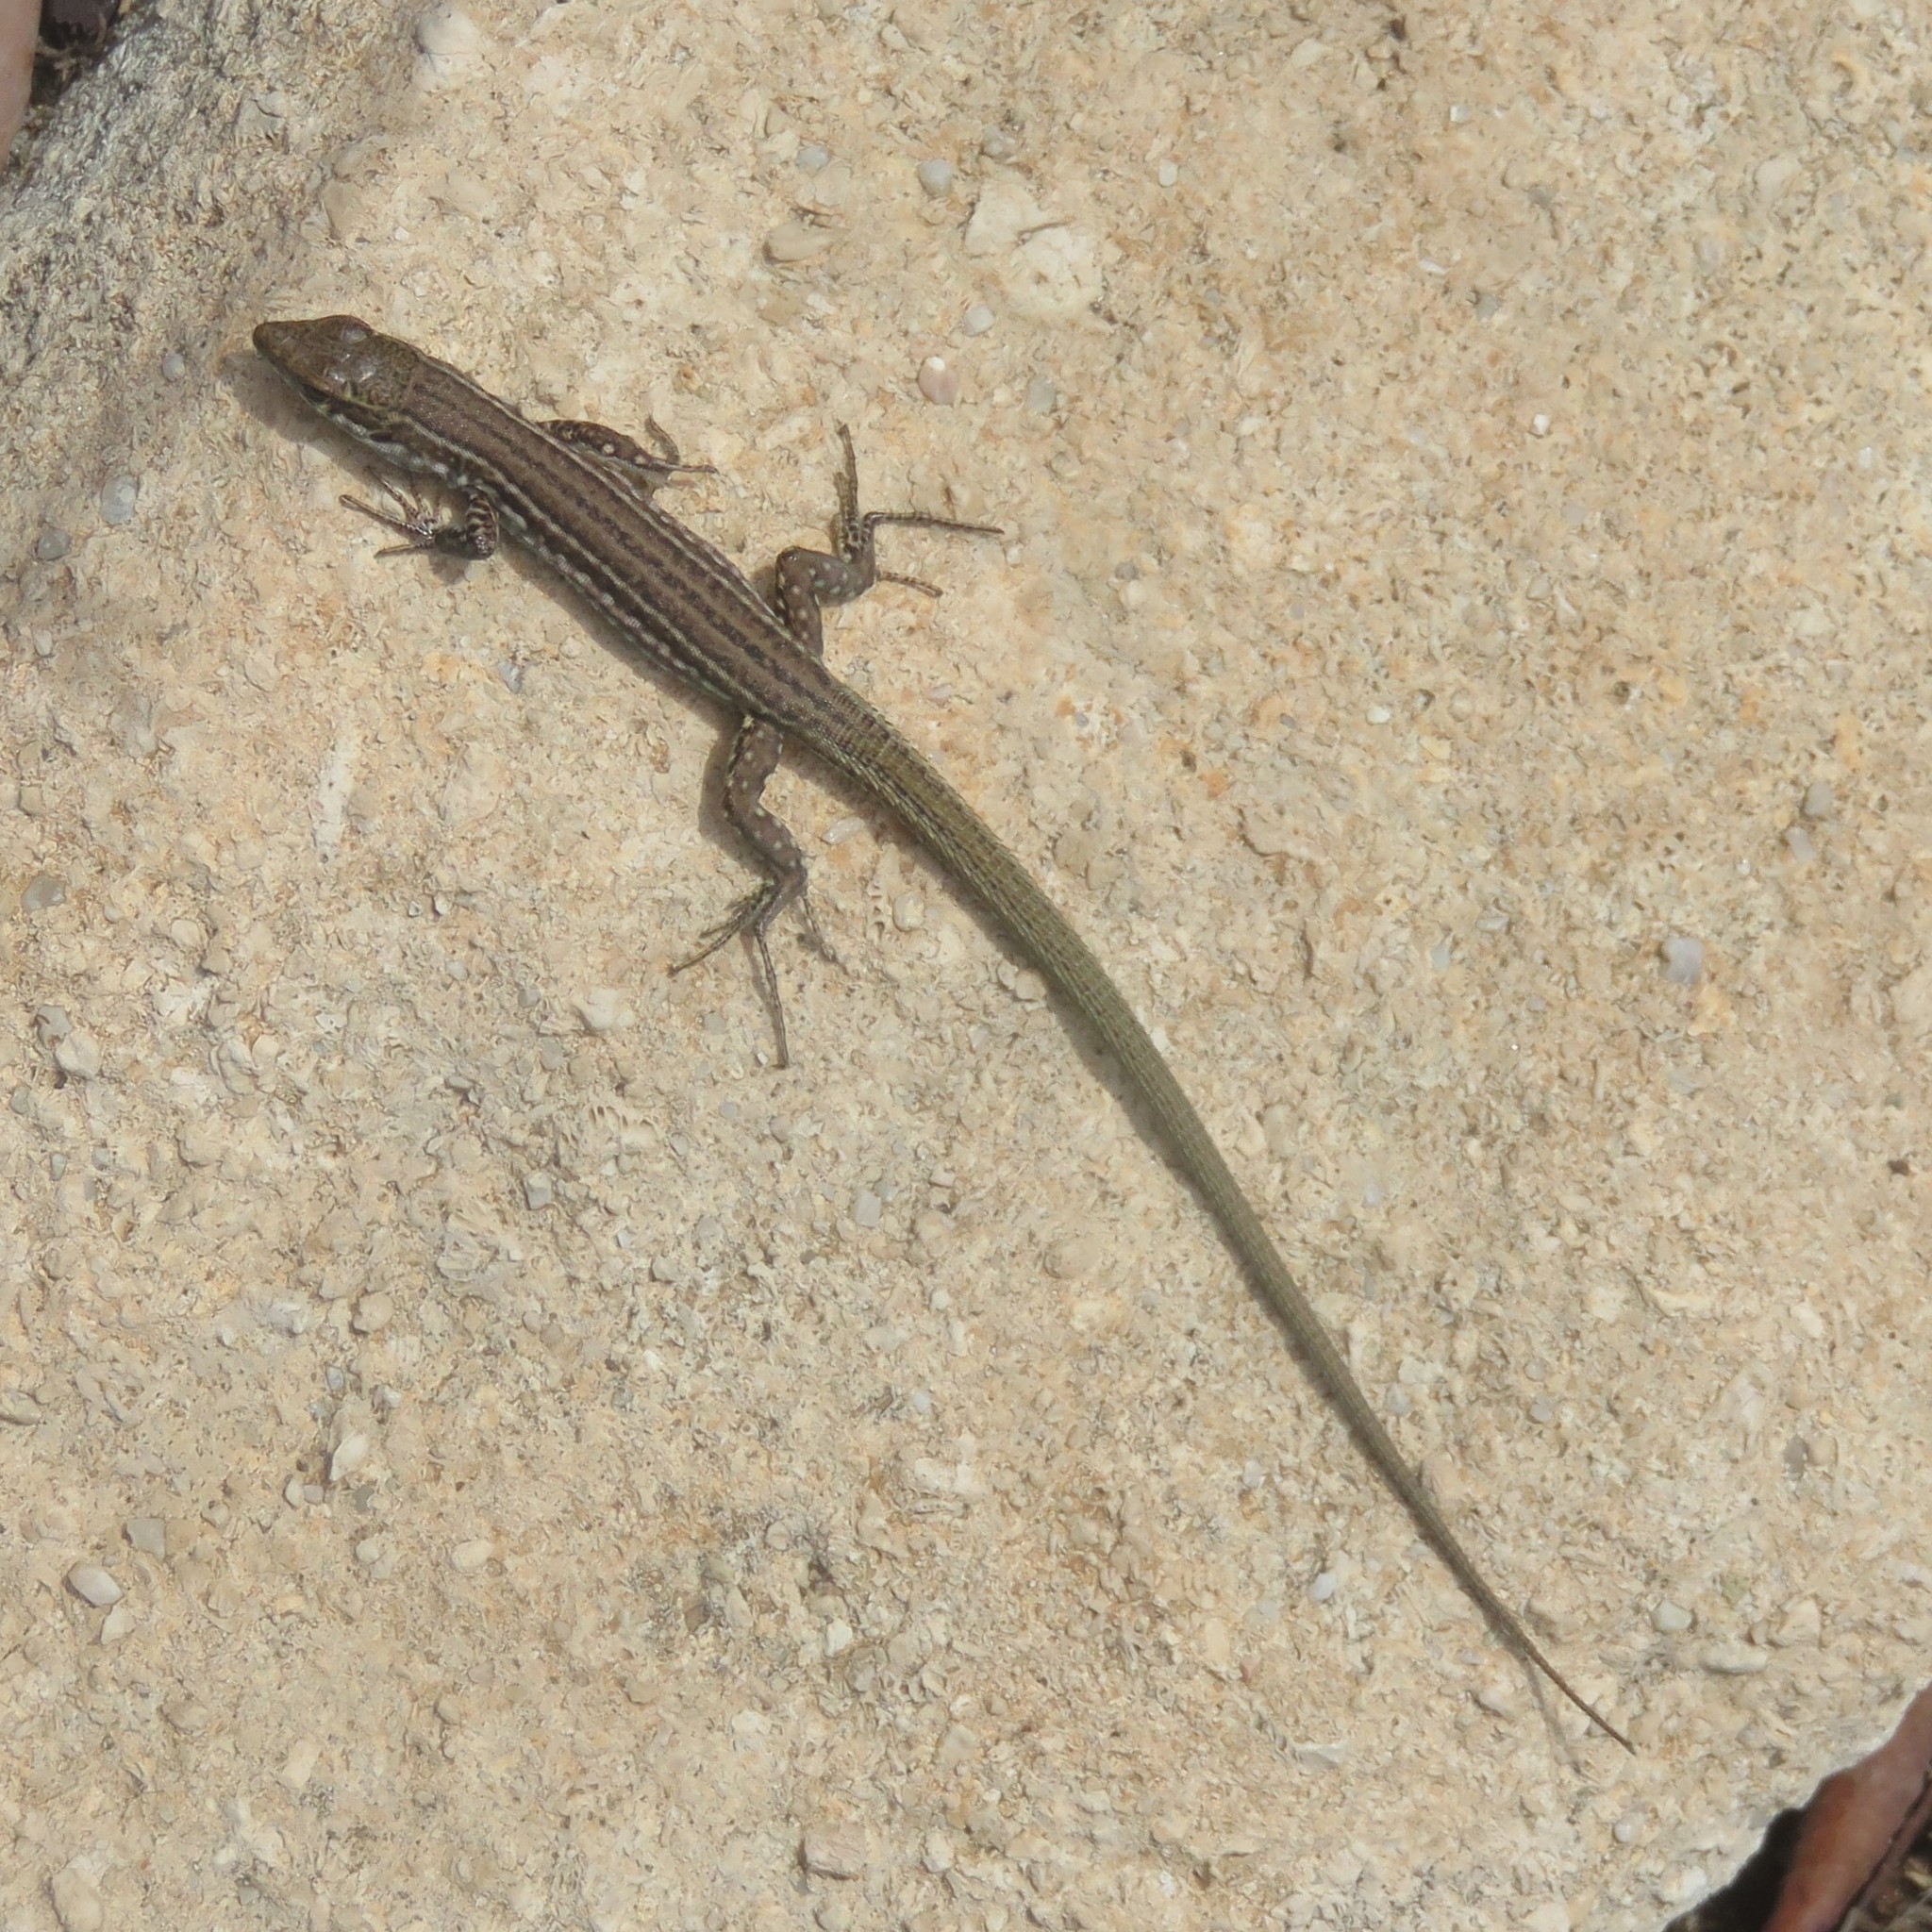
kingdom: Animalia
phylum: Chordata
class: Squamata
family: Lacertidae
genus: Podarcis
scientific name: Podarcis tiliguerta
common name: Tyrrhenian wall lizard
